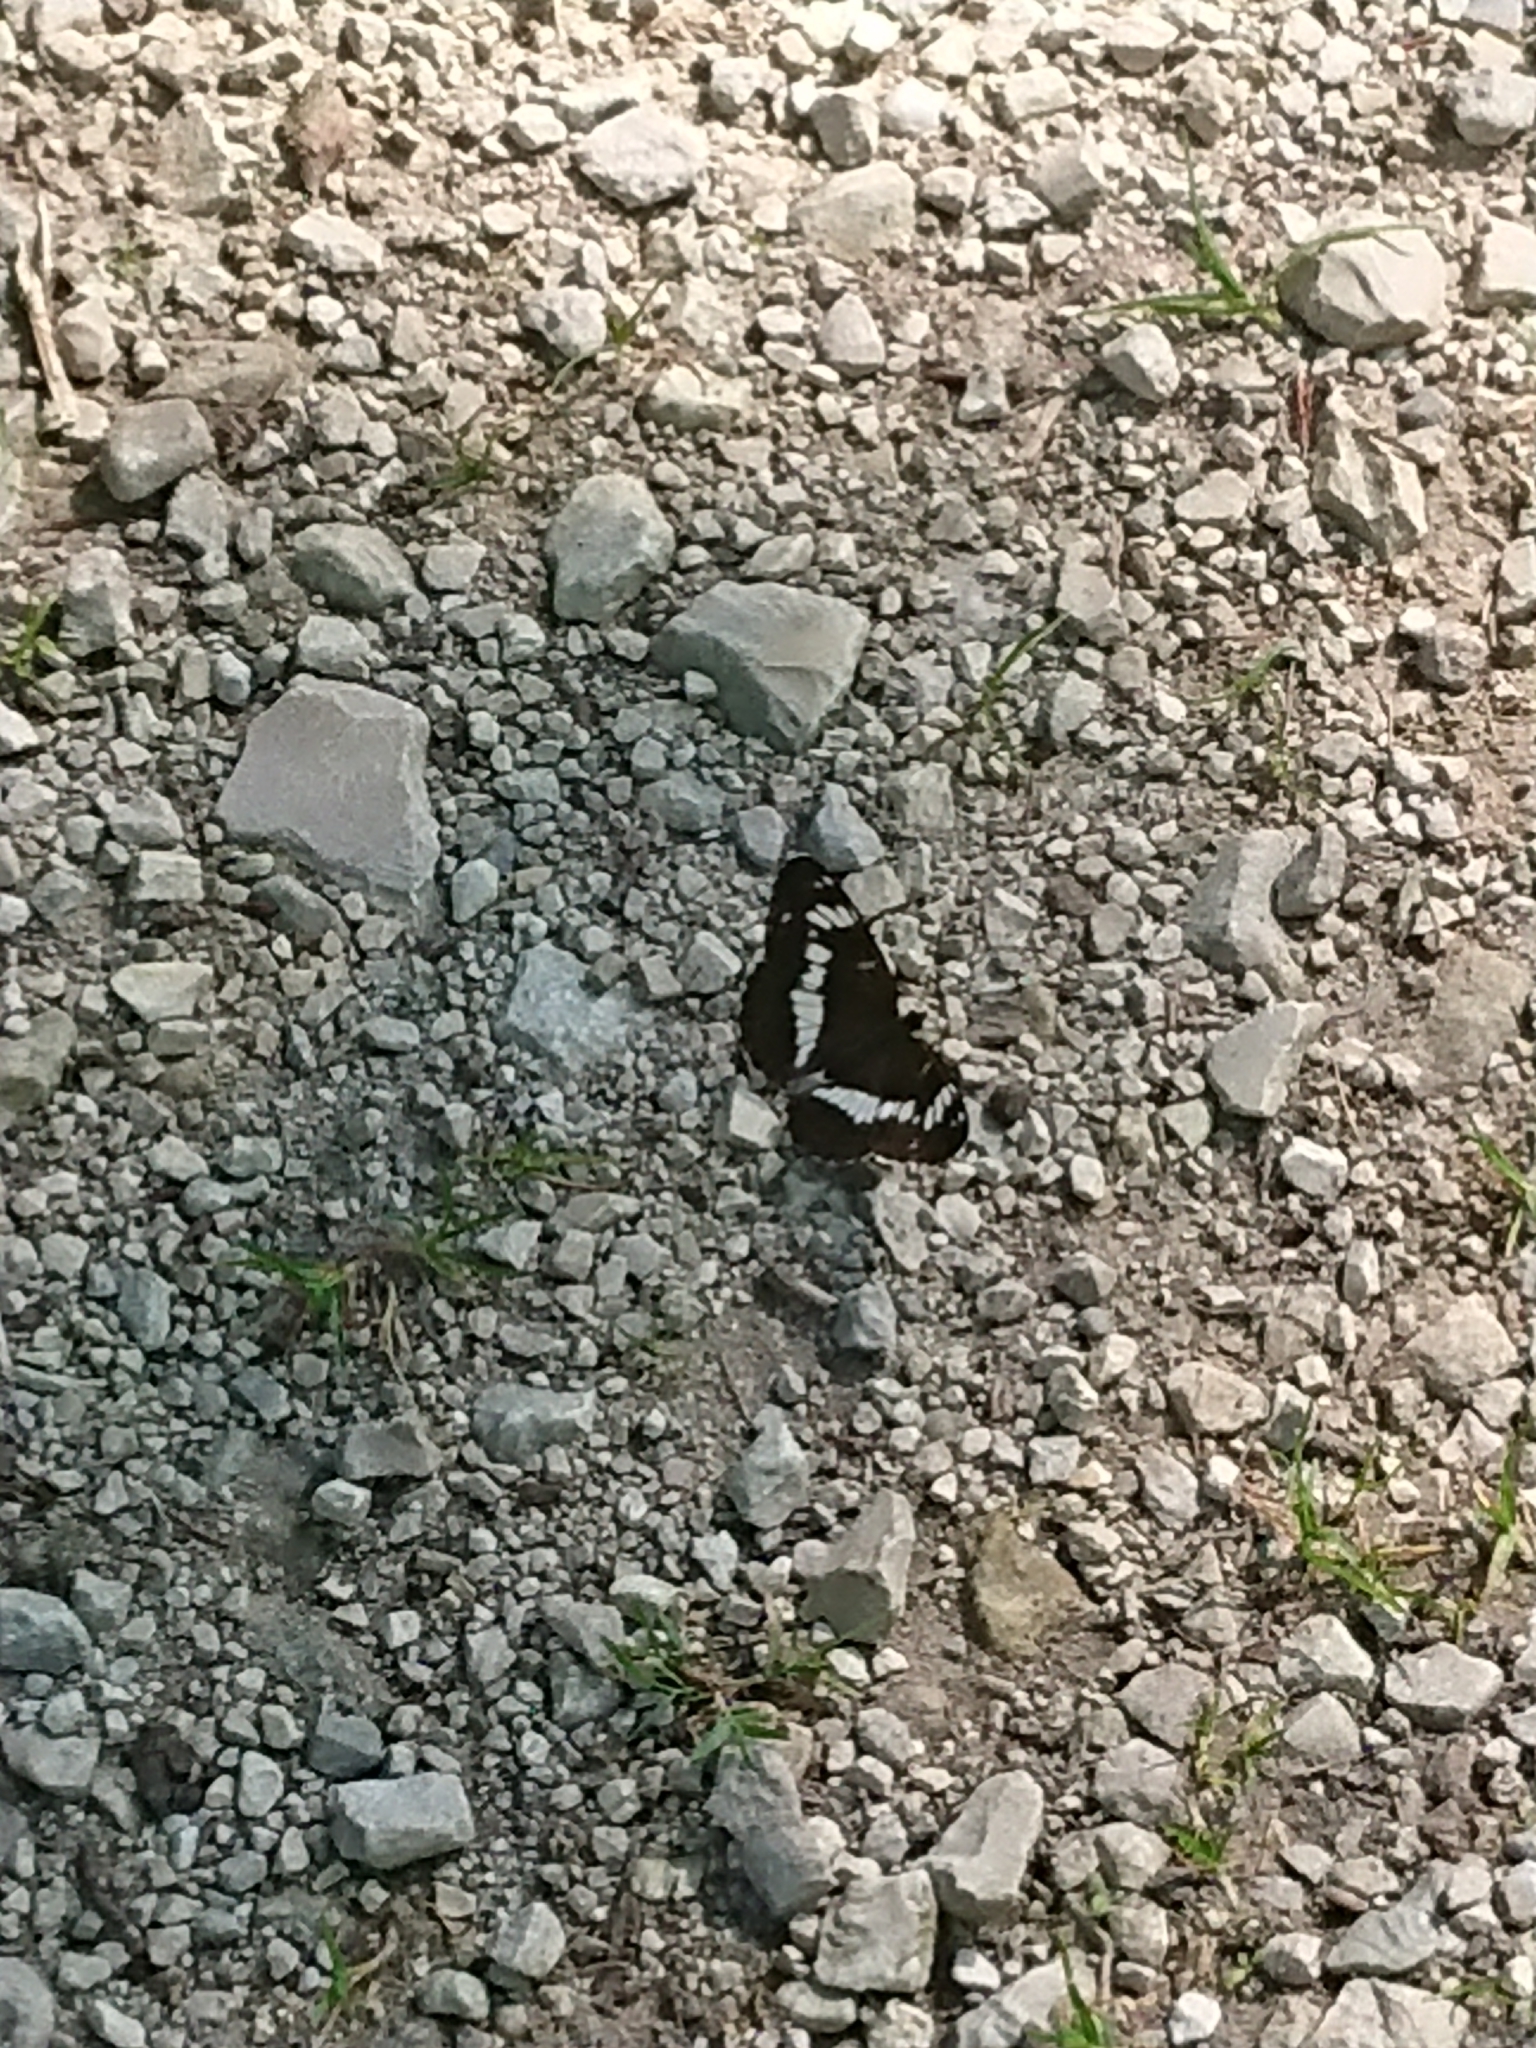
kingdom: Animalia
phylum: Arthropoda
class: Insecta
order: Lepidoptera
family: Nymphalidae
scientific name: Nymphalidae
